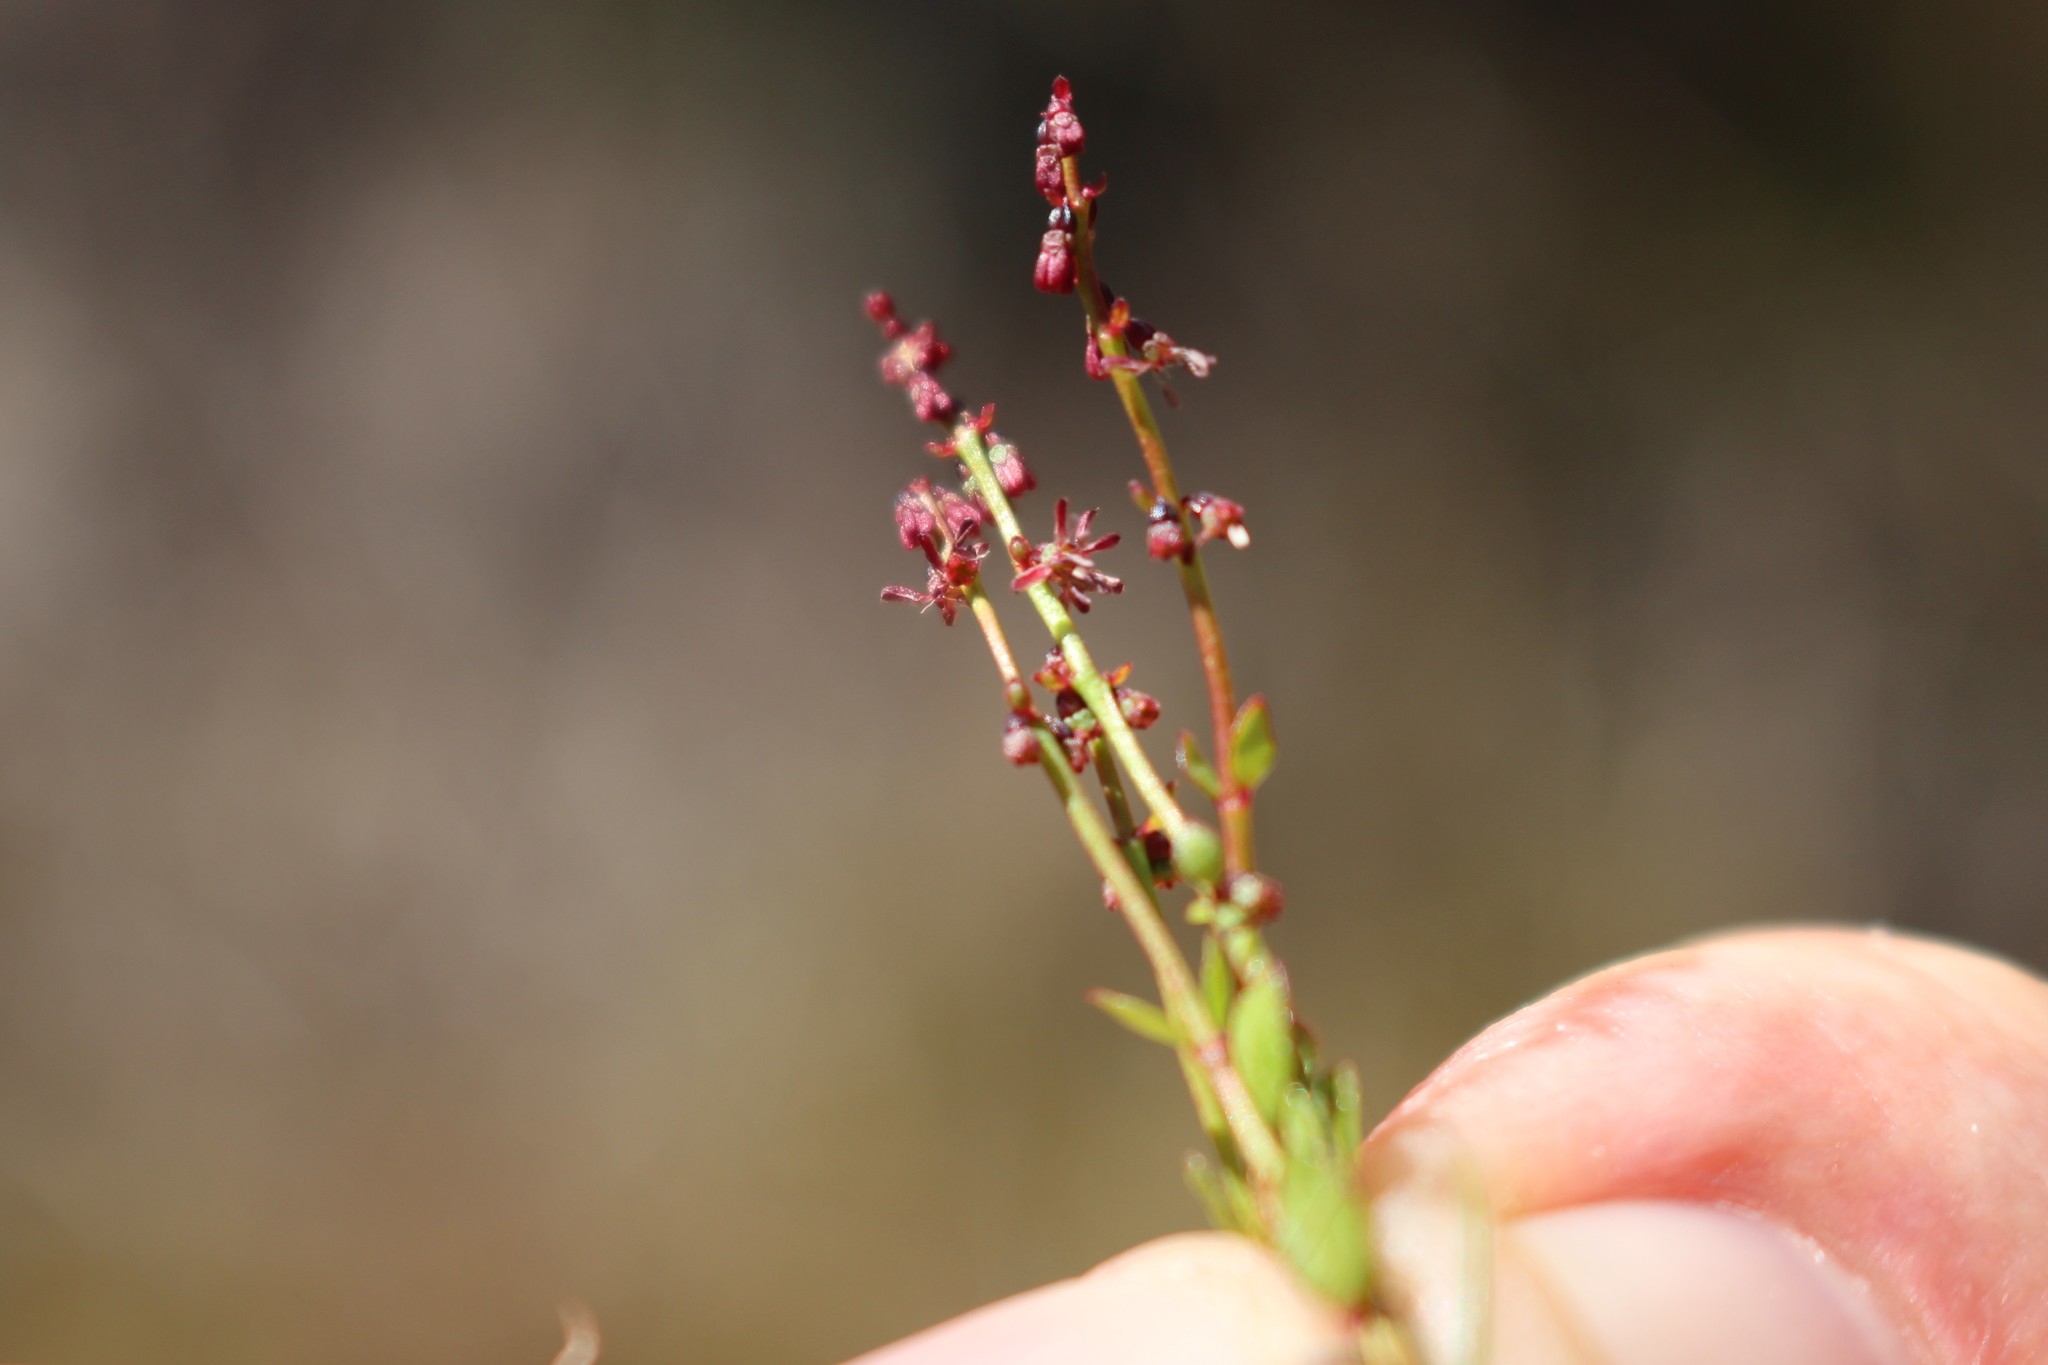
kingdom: Plantae
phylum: Tracheophyta
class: Magnoliopsida
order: Saxifragales
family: Haloragaceae
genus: Gonocarpus
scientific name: Gonocarpus micranthus
